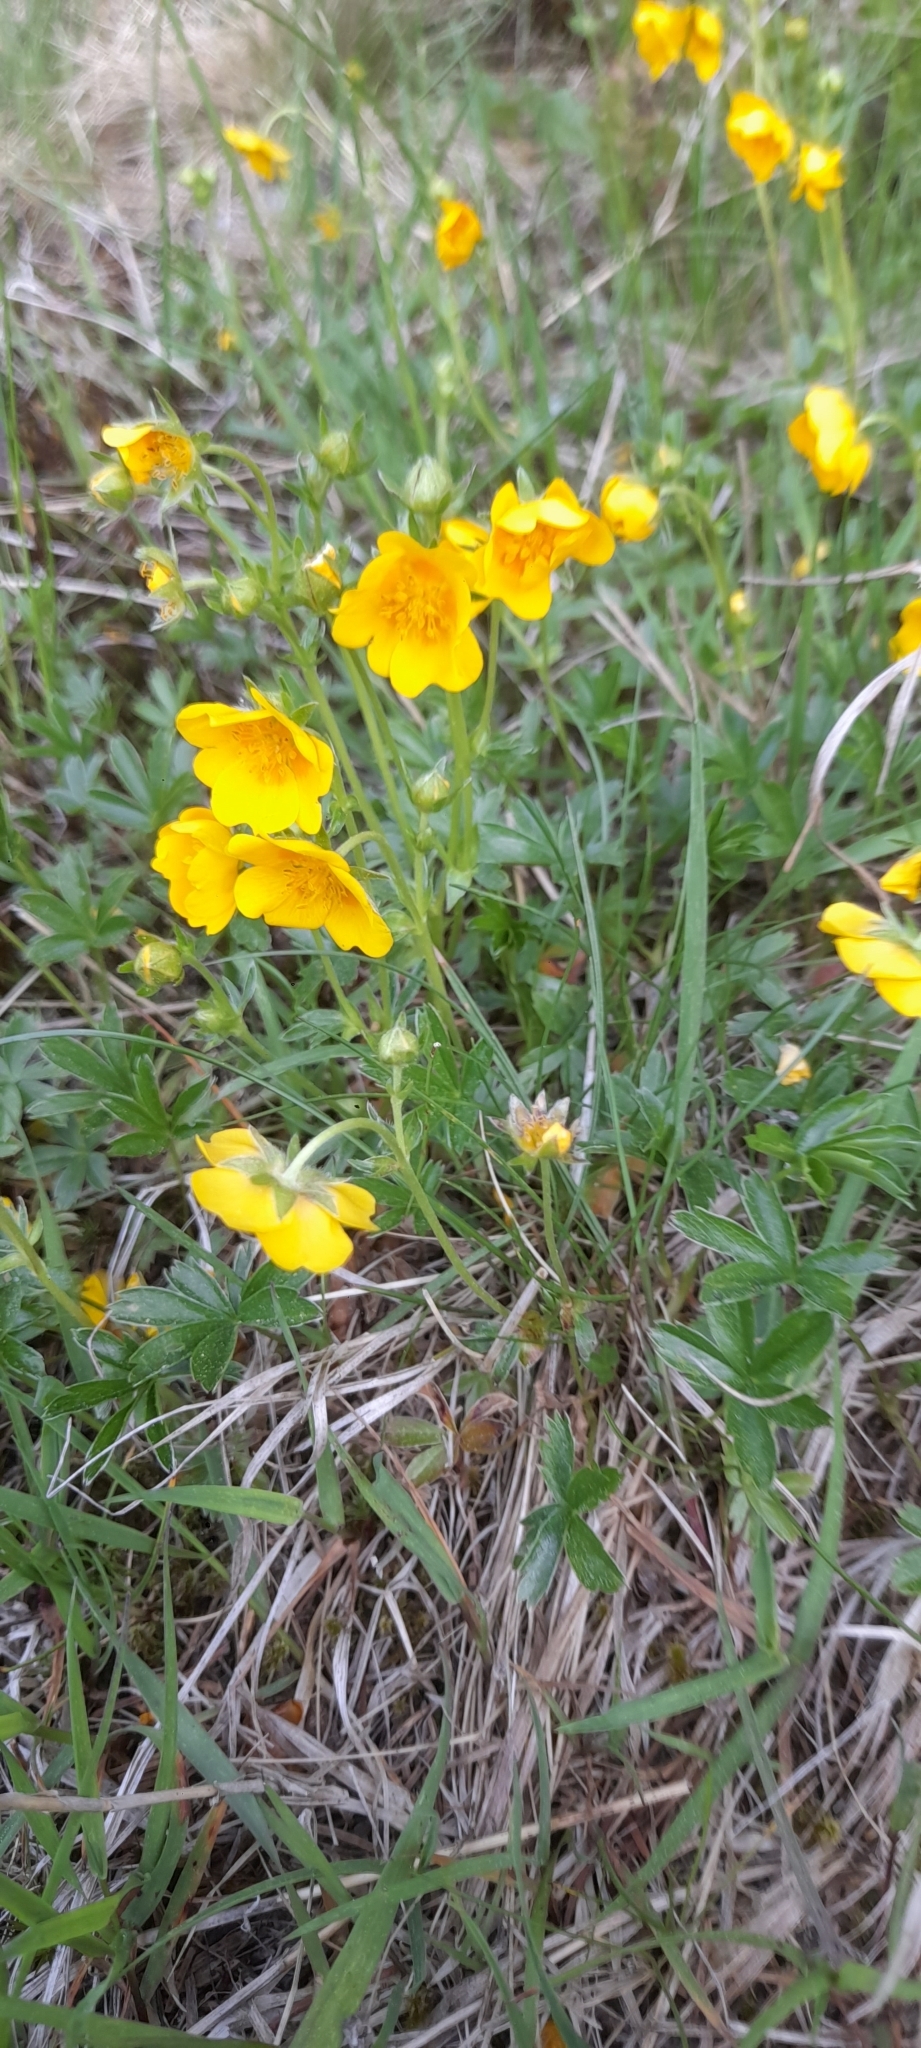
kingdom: Plantae
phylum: Tracheophyta
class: Magnoliopsida
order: Rosales
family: Rosaceae
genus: Potentilla
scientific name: Potentilla aurea
